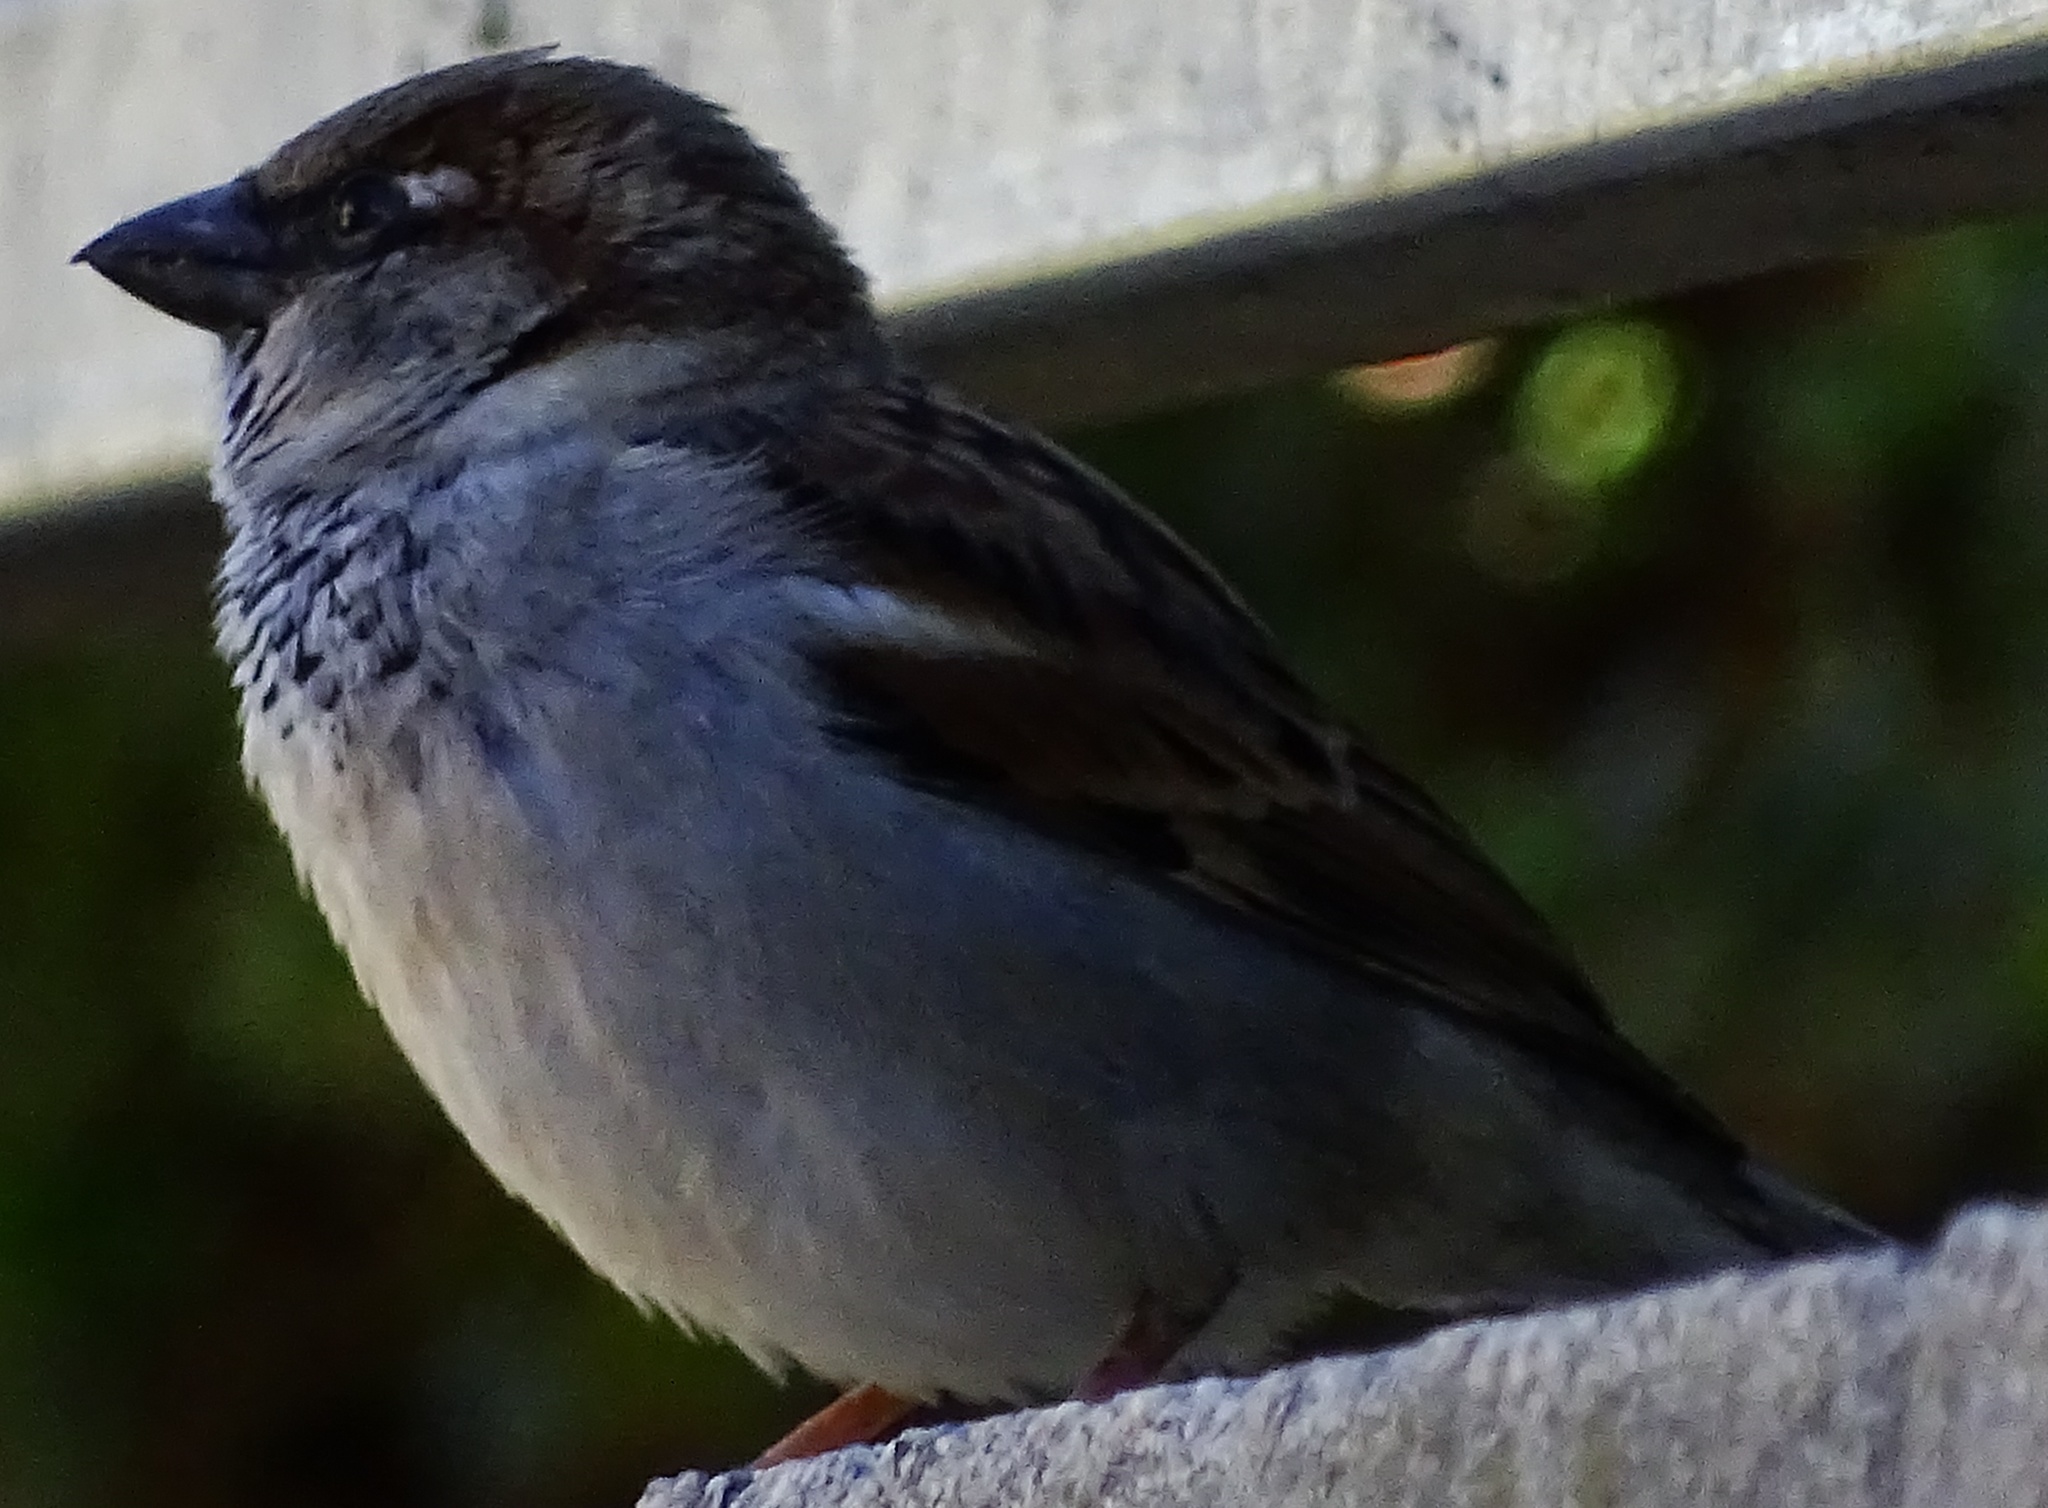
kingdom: Animalia
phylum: Chordata
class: Aves
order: Passeriformes
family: Passeridae
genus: Passer
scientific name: Passer domesticus
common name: House sparrow
